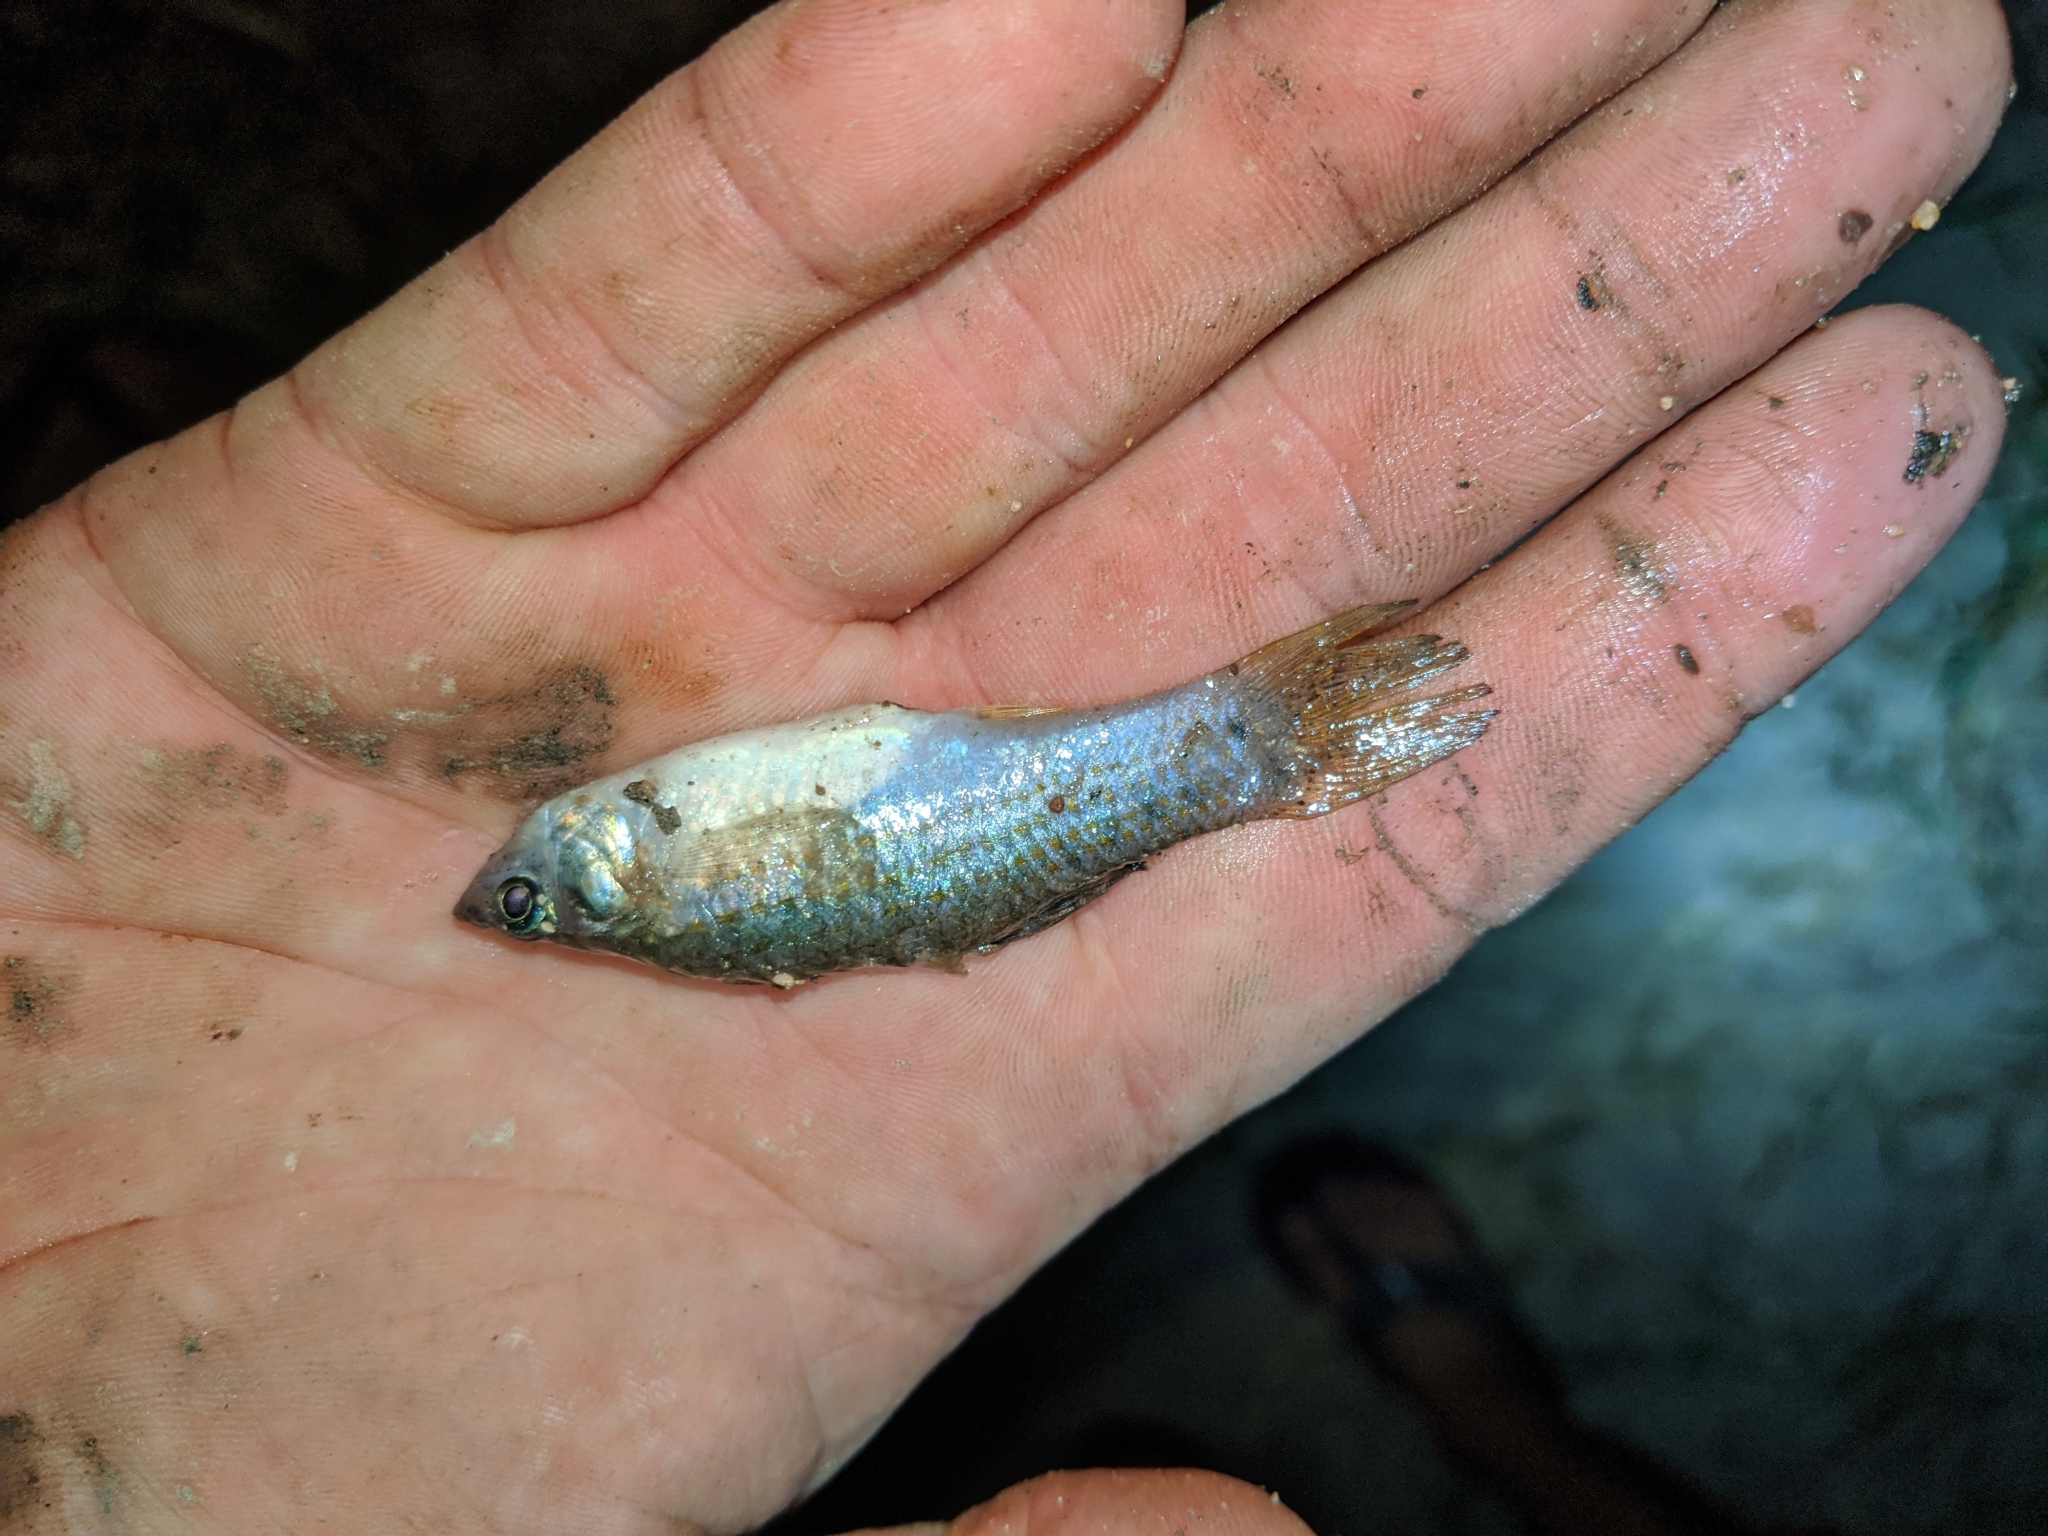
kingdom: Animalia
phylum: Chordata
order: Cyprinodontiformes
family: Poeciliidae
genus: Poecilia
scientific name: Poecilia butleri
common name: Pacific molly
